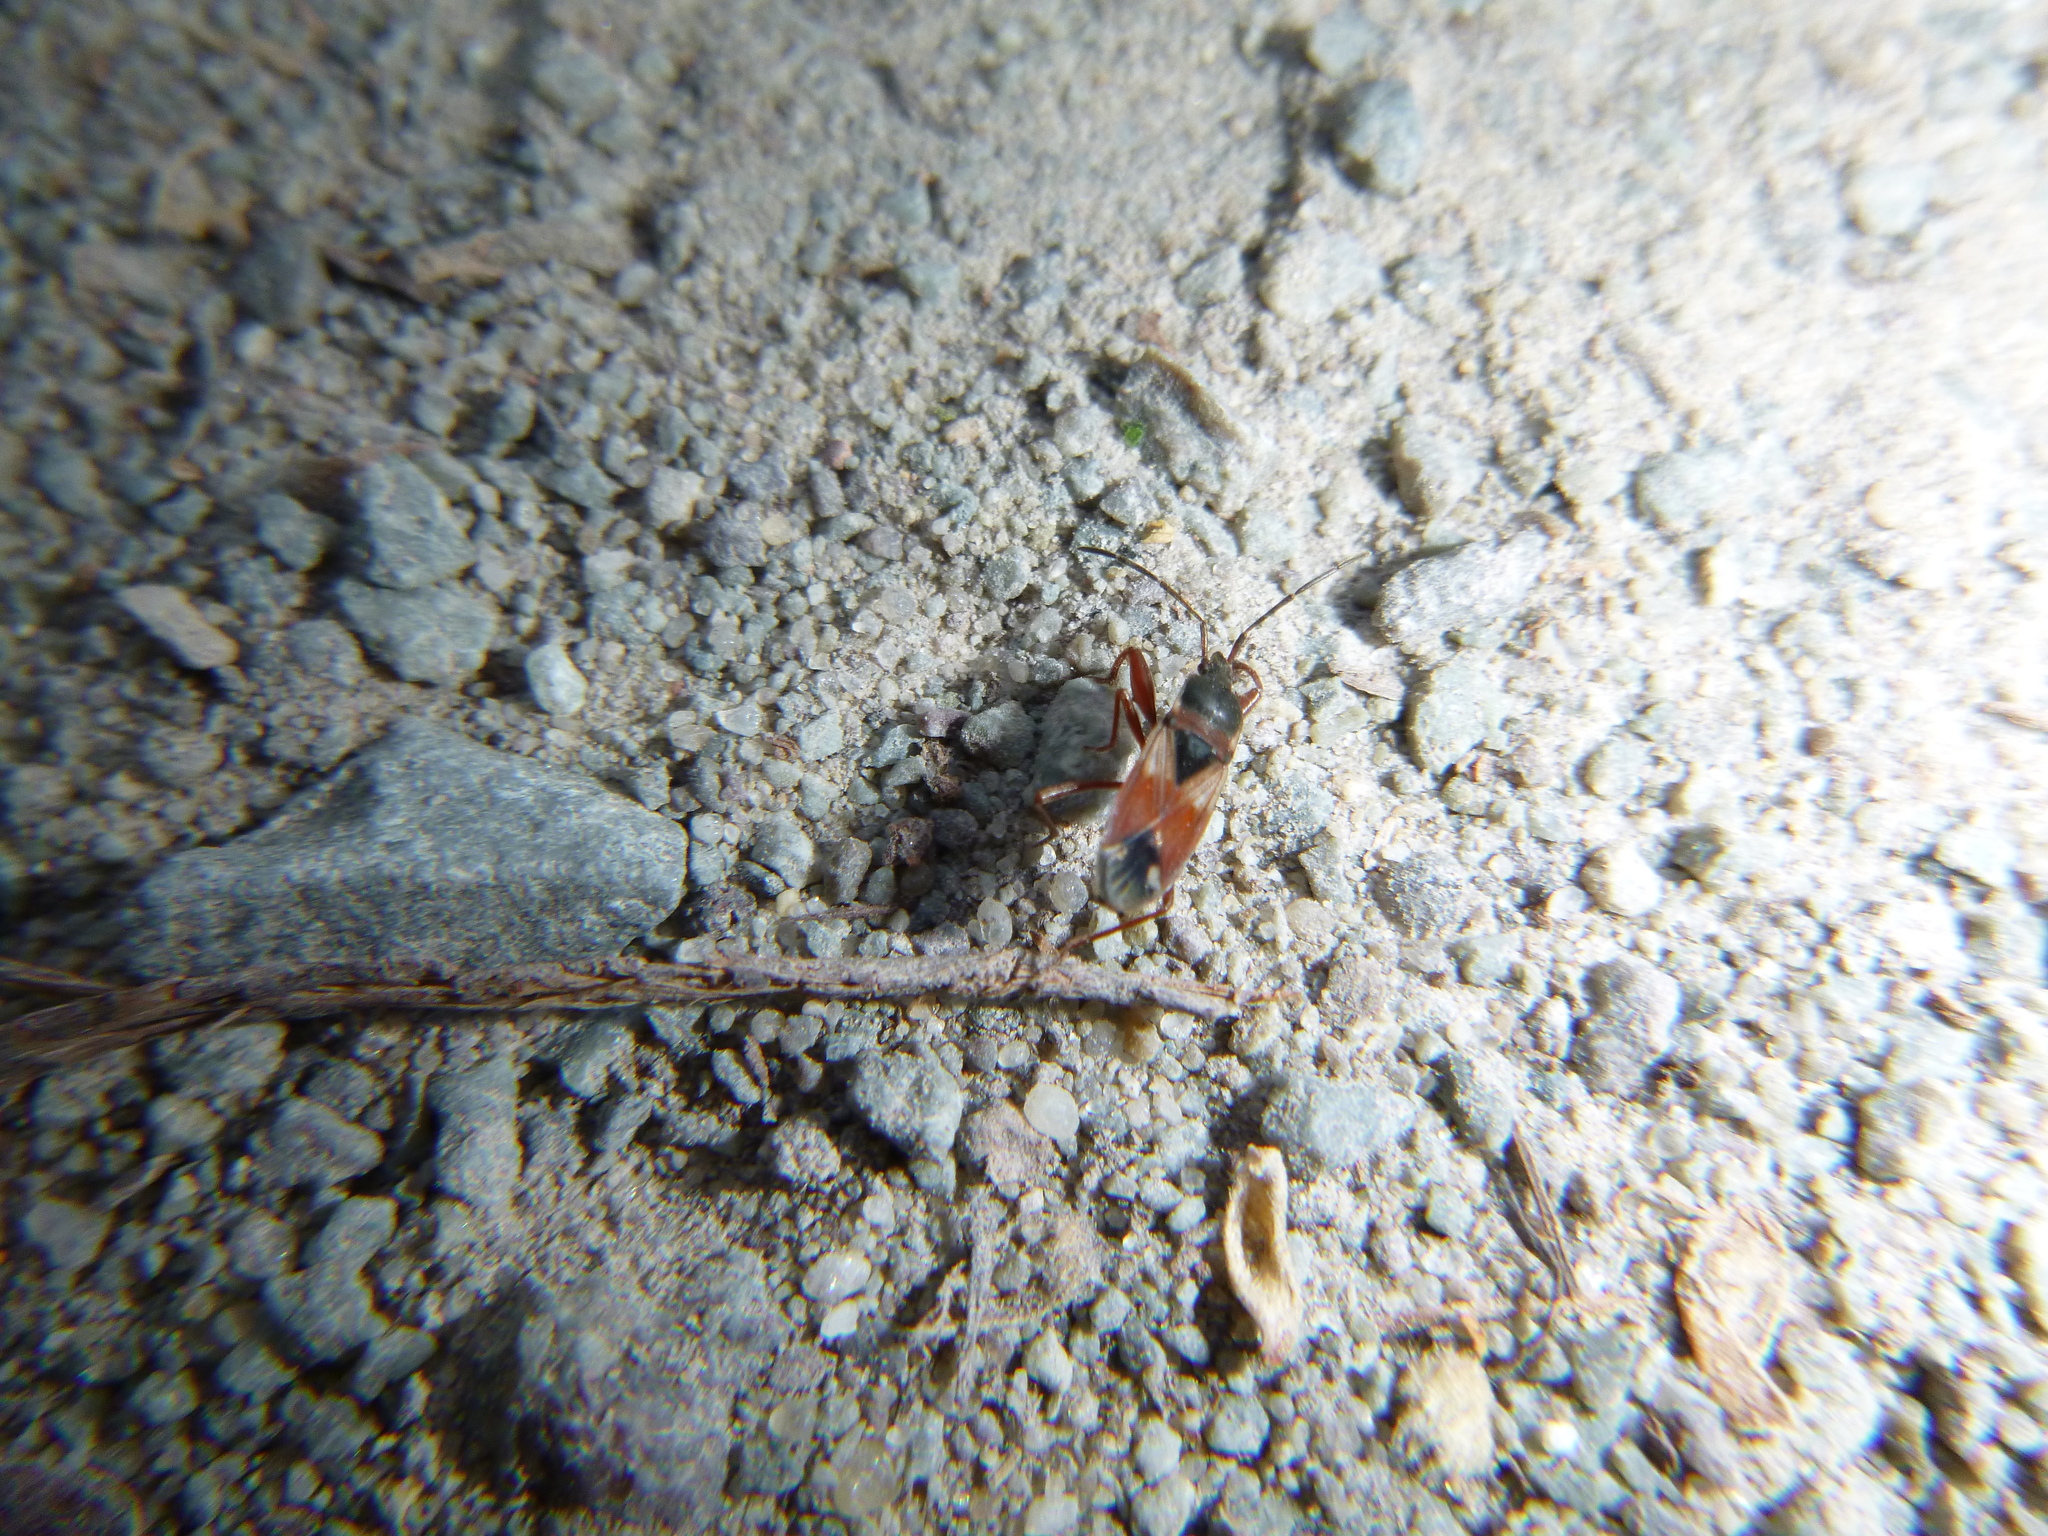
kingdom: Animalia
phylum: Arthropoda
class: Insecta
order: Hemiptera
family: Rhyparochromidae
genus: Eremocoris
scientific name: Eremocoris abietis
